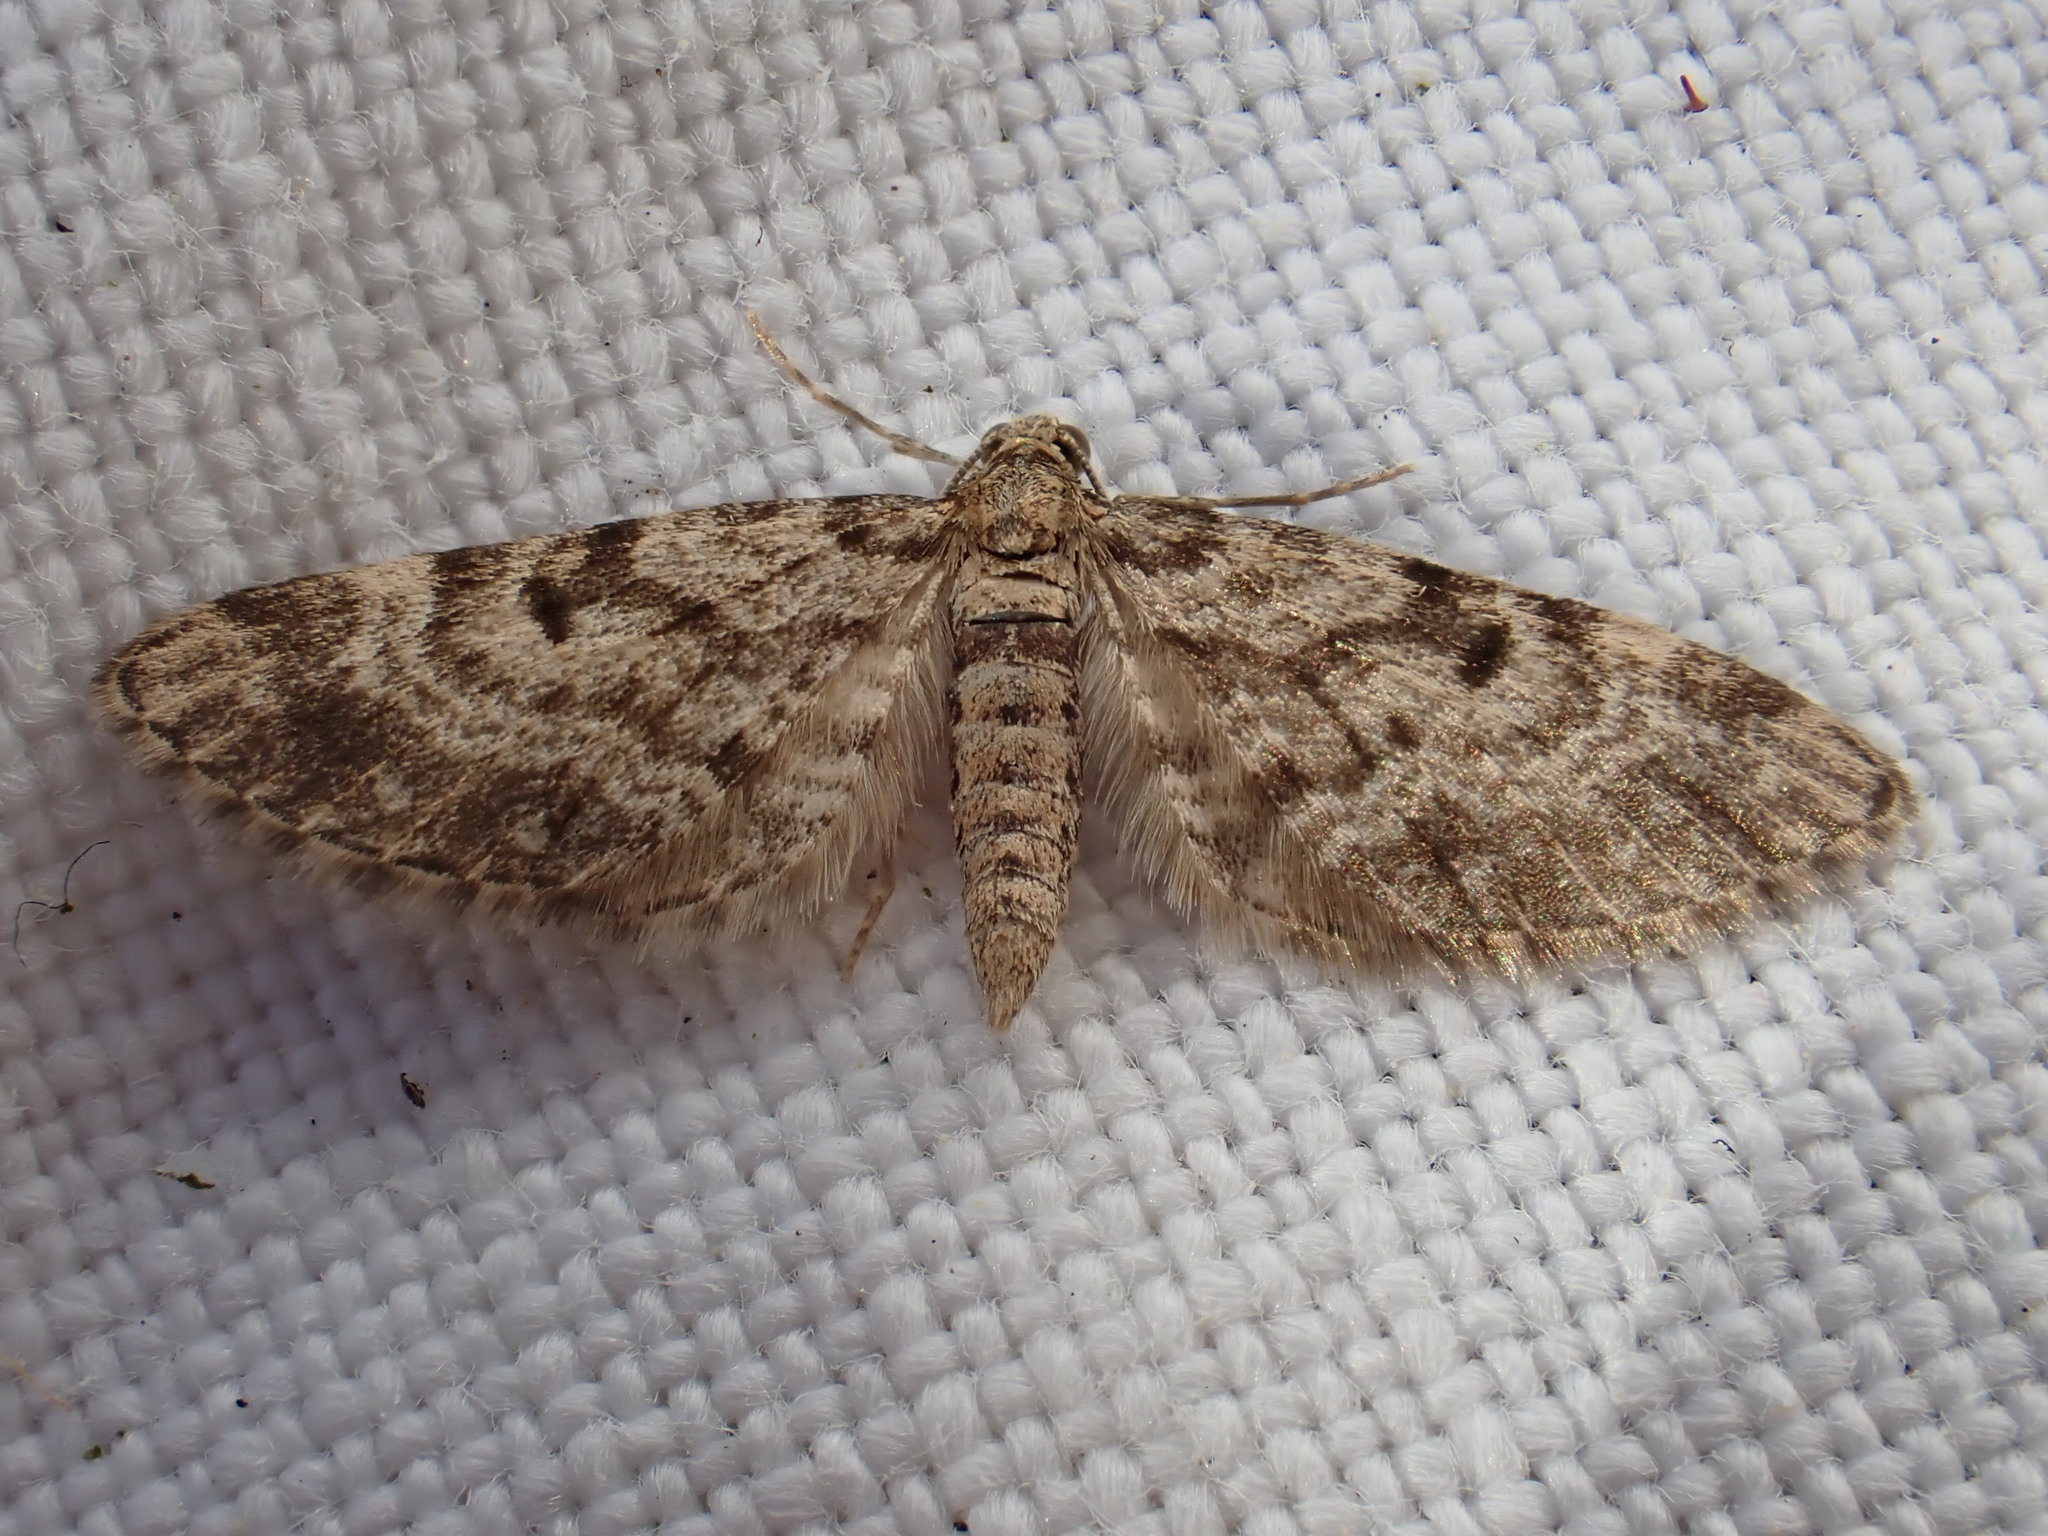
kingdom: Animalia
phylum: Arthropoda
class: Insecta
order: Lepidoptera
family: Geometridae
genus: Eupithecia
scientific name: Eupithecia tantillaria
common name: Dwarf pug
